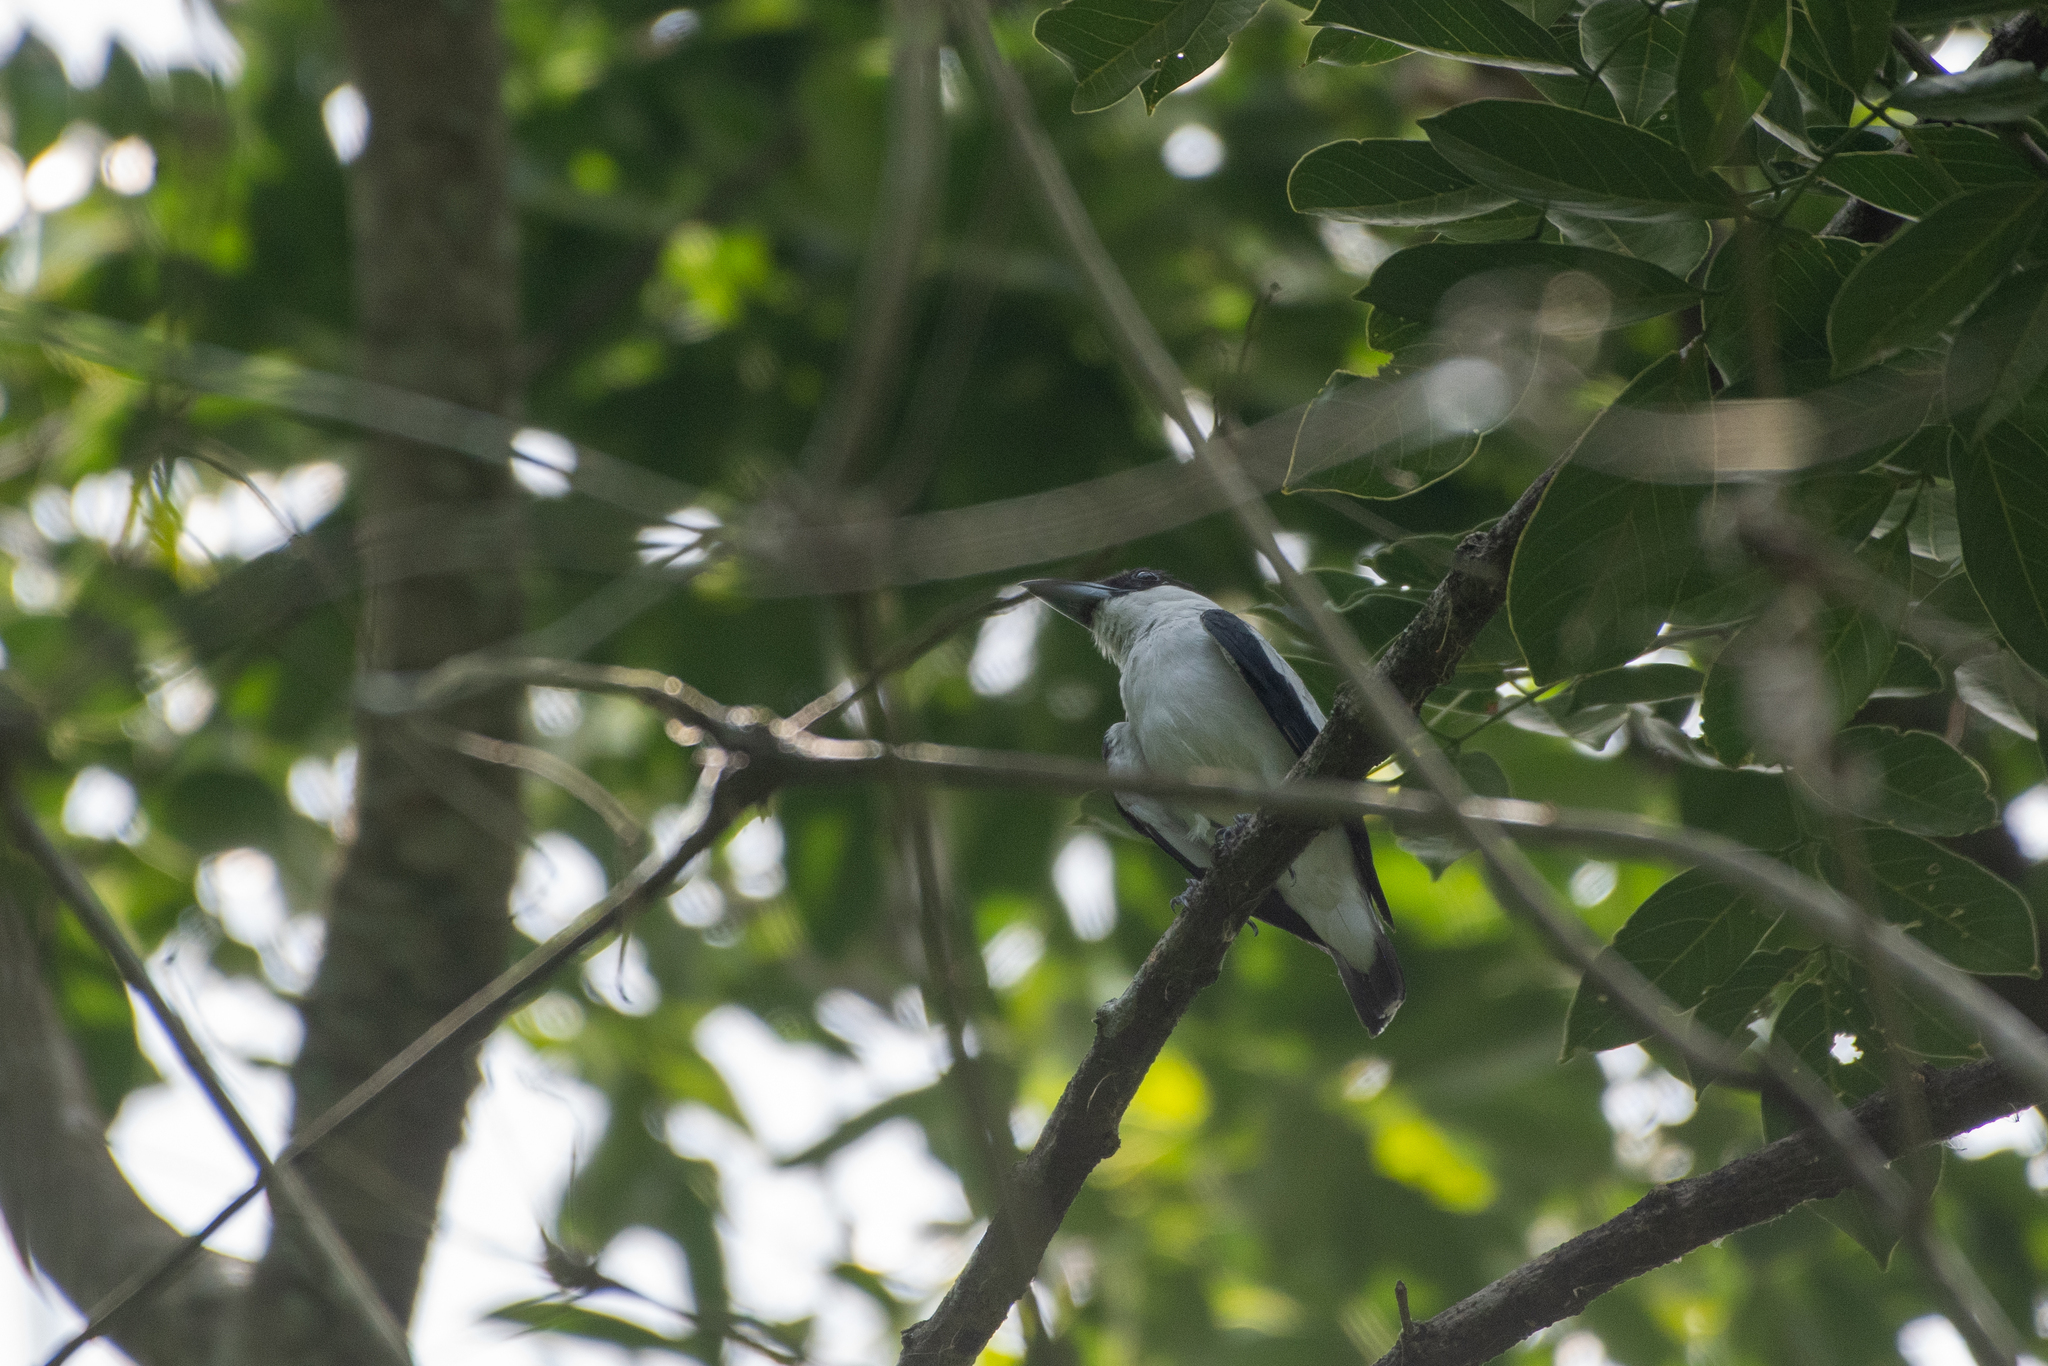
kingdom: Animalia
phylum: Chordata
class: Aves
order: Passeriformes
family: Cotingidae
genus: Tityra
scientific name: Tityra inquisitor
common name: Black-crowned tityra
